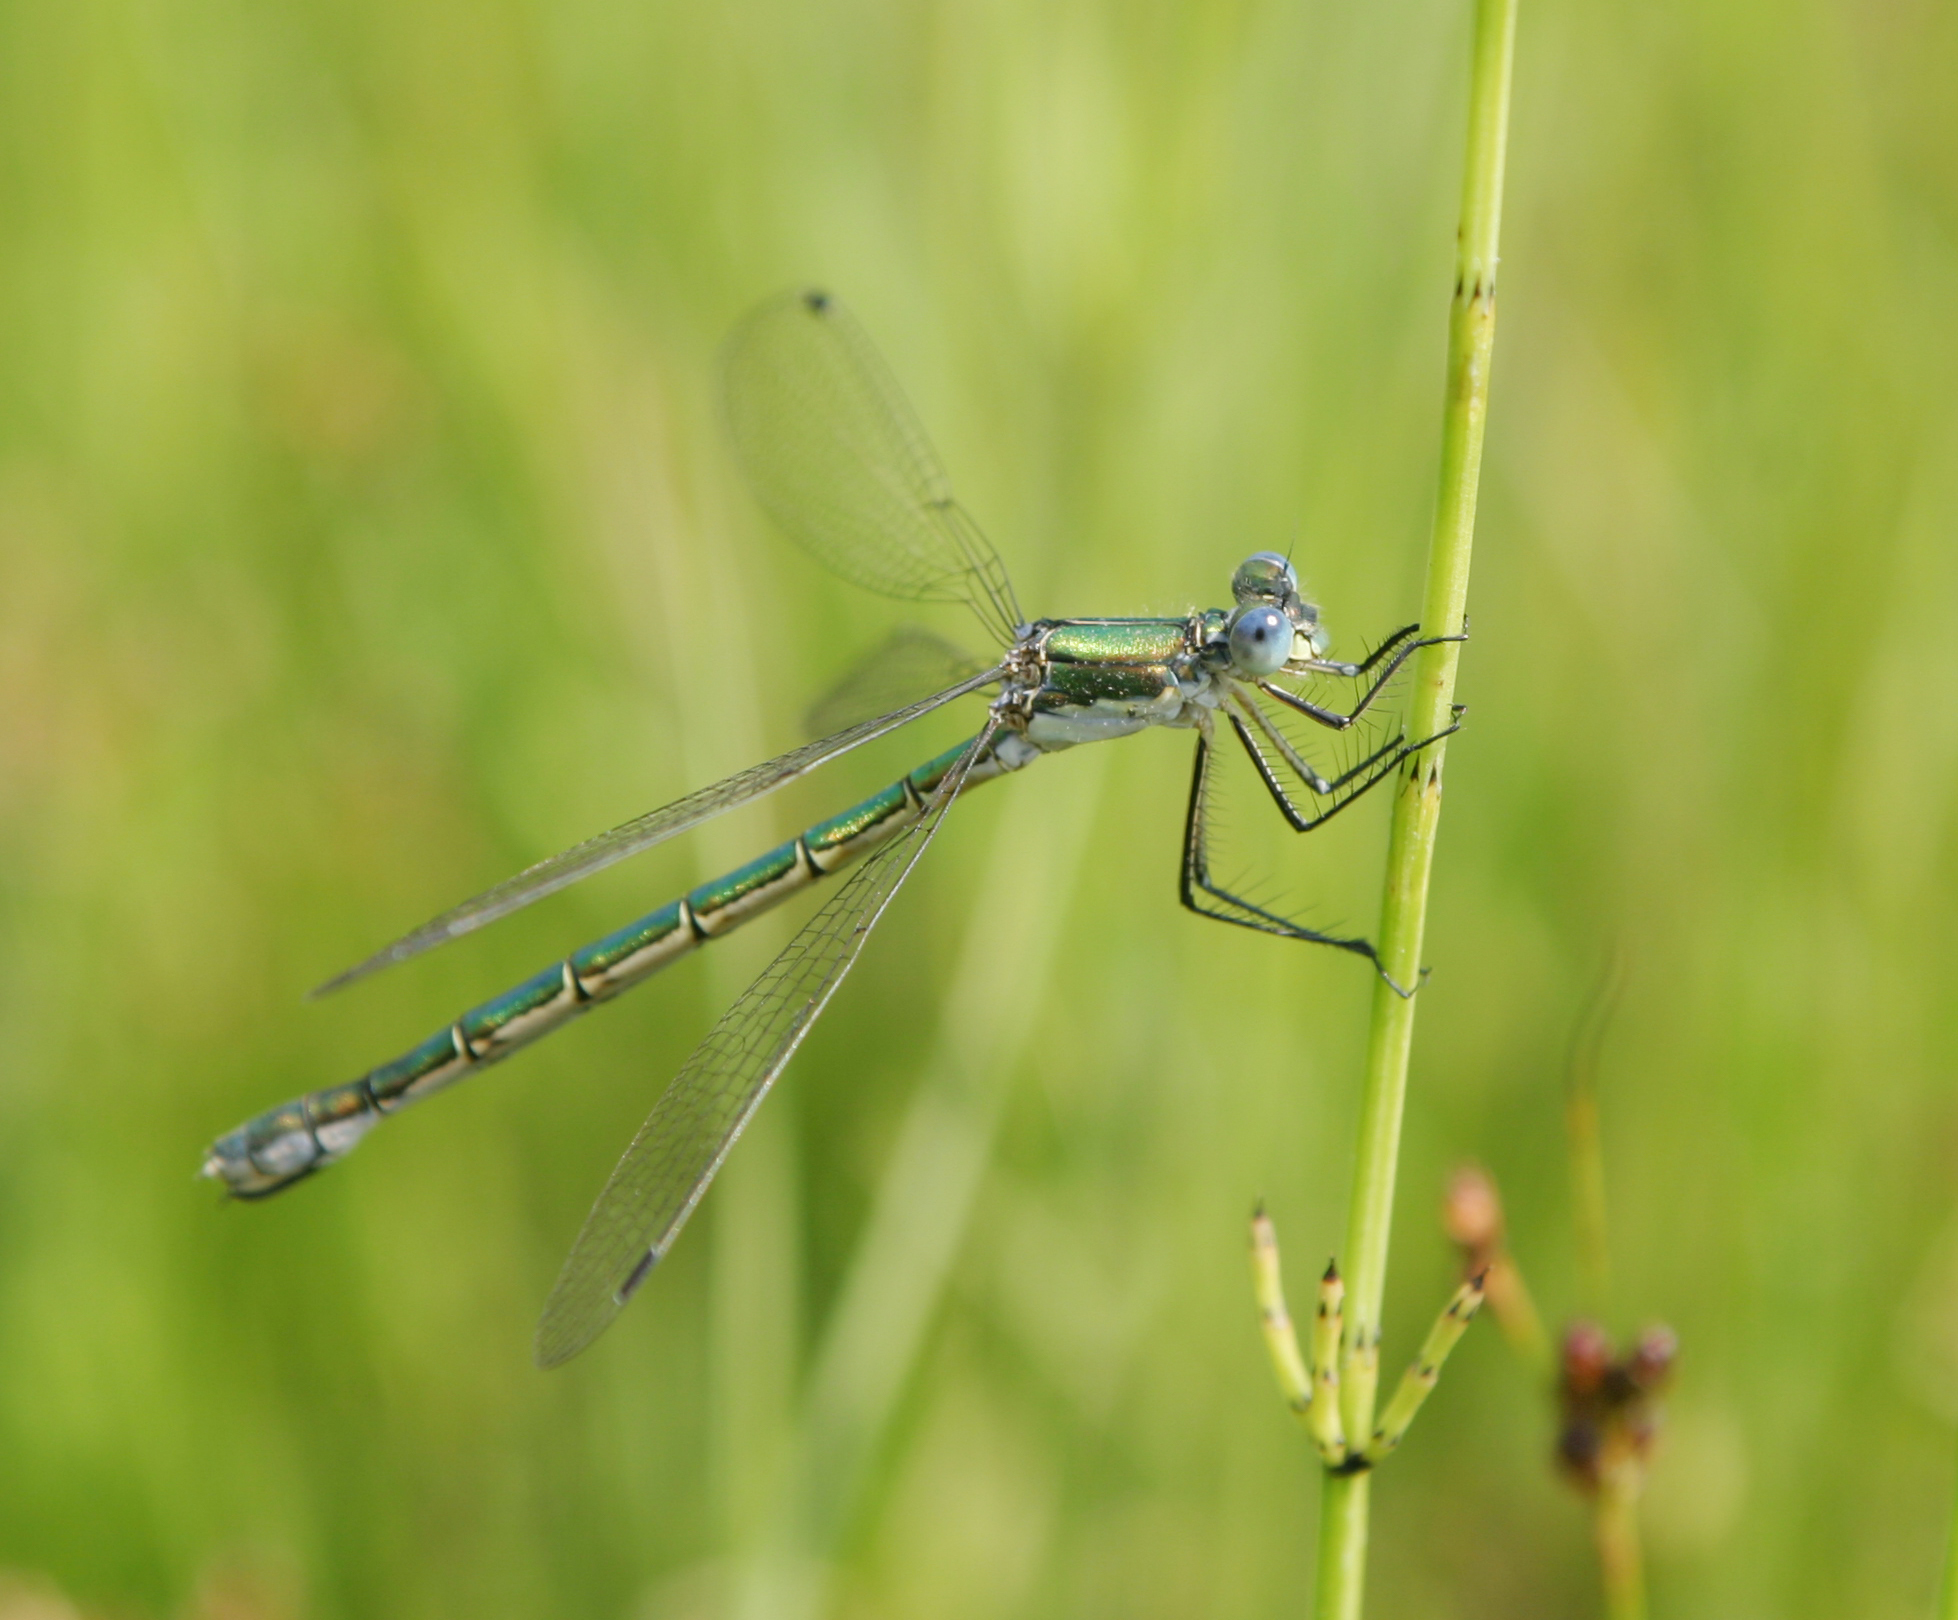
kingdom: Animalia
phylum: Arthropoda
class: Insecta
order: Odonata
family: Lestidae
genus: Lestes
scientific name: Lestes dryas
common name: Scarce emerald damselfly
